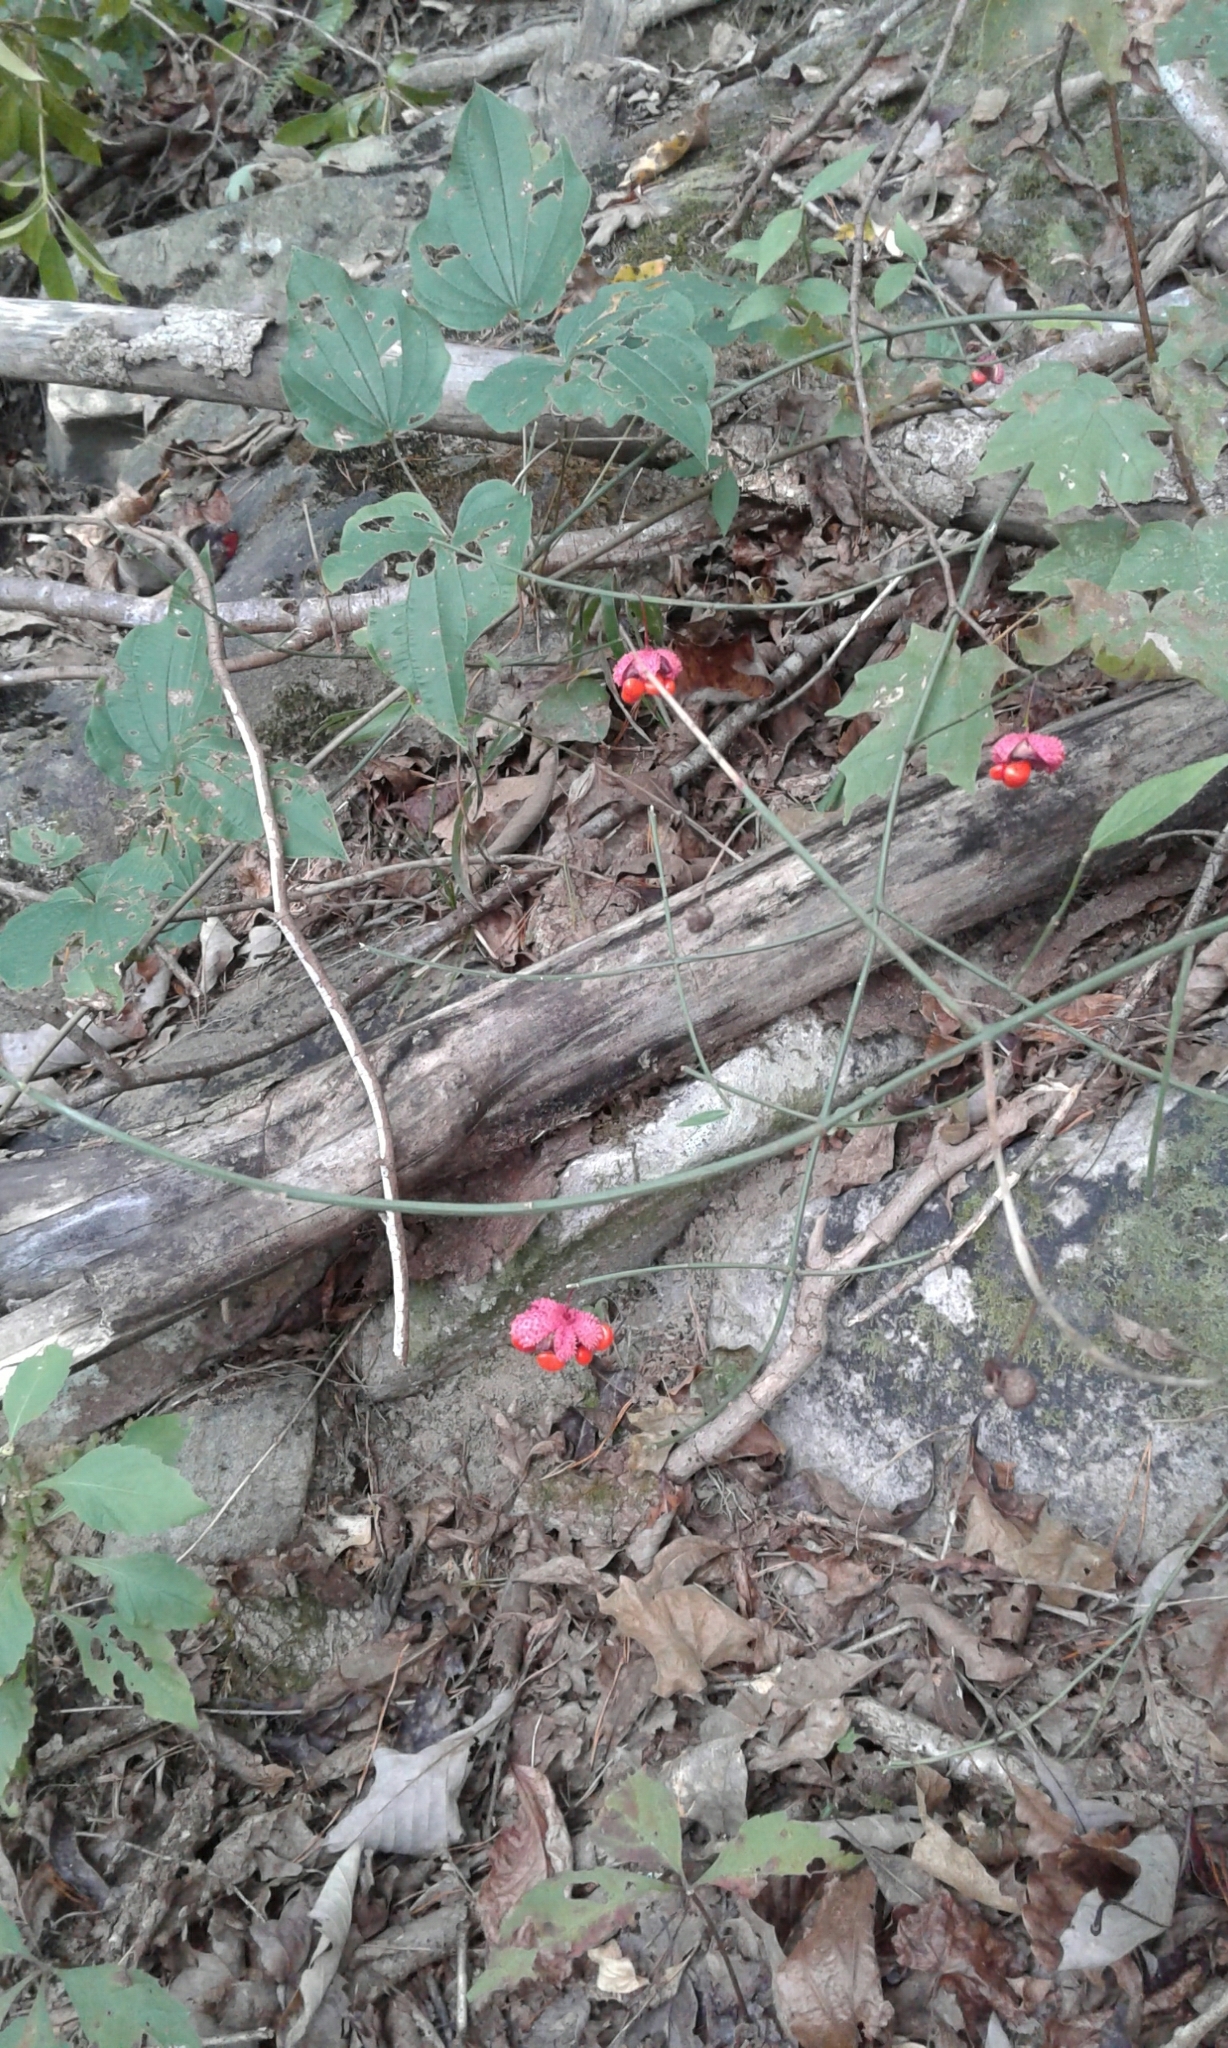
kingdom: Plantae
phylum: Tracheophyta
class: Magnoliopsida
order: Celastrales
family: Celastraceae
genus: Euonymus
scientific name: Euonymus americanus
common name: Bursting-heart
